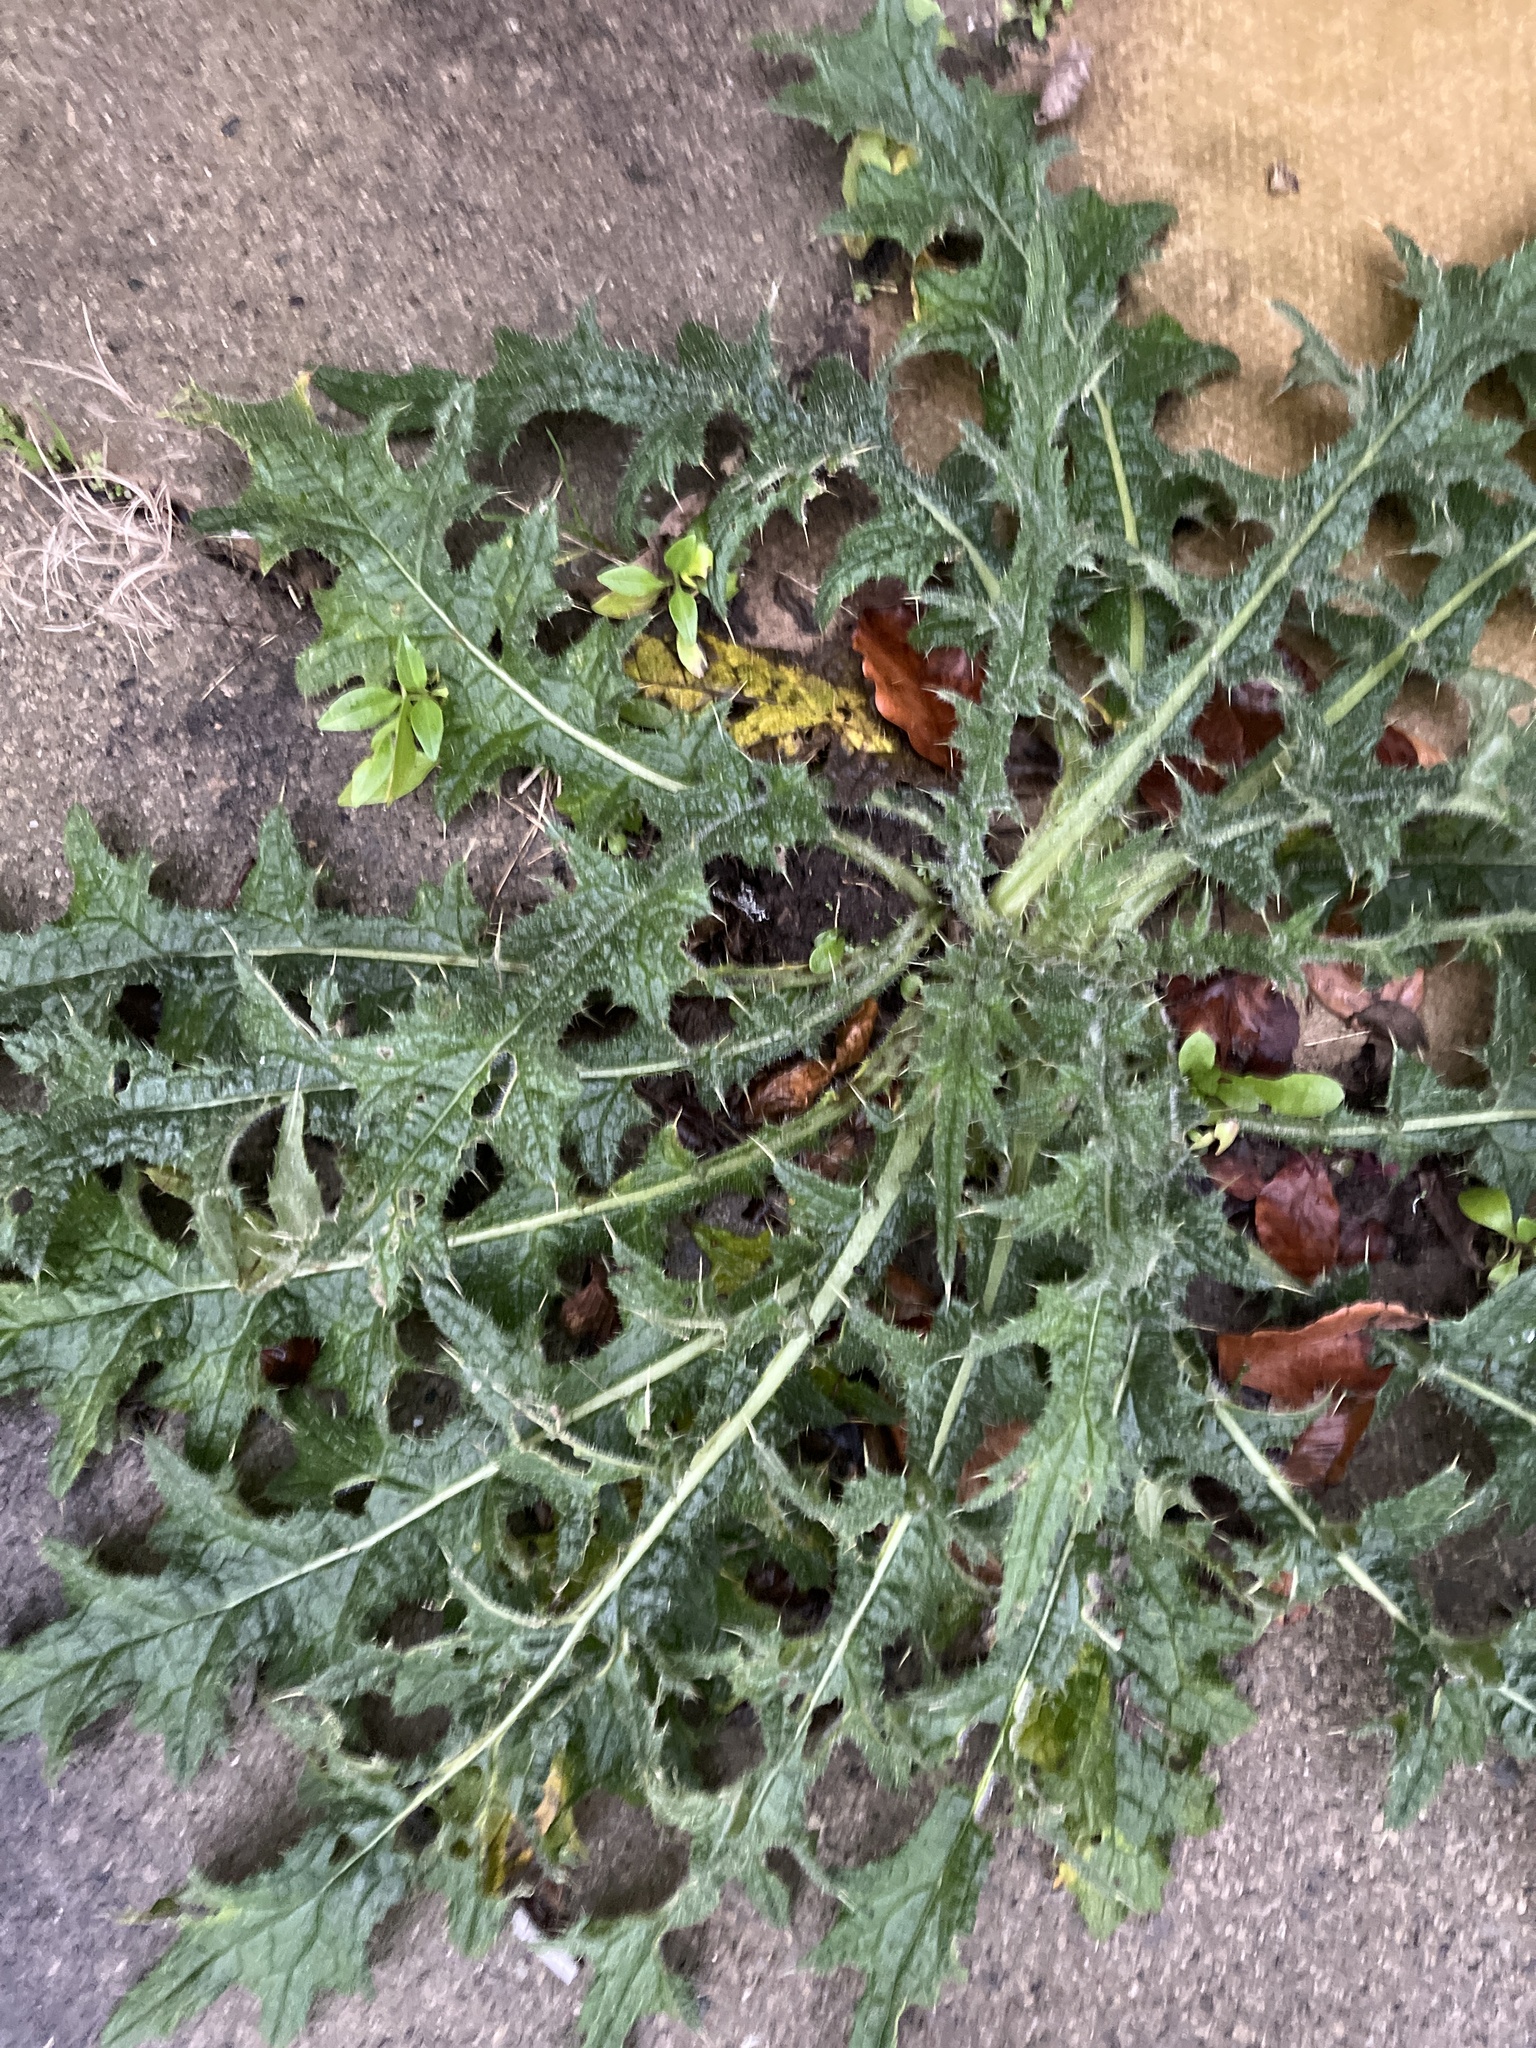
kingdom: Plantae
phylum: Tracheophyta
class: Magnoliopsida
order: Asterales
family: Asteraceae
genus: Cirsium
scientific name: Cirsium vulgare
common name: Bull thistle
